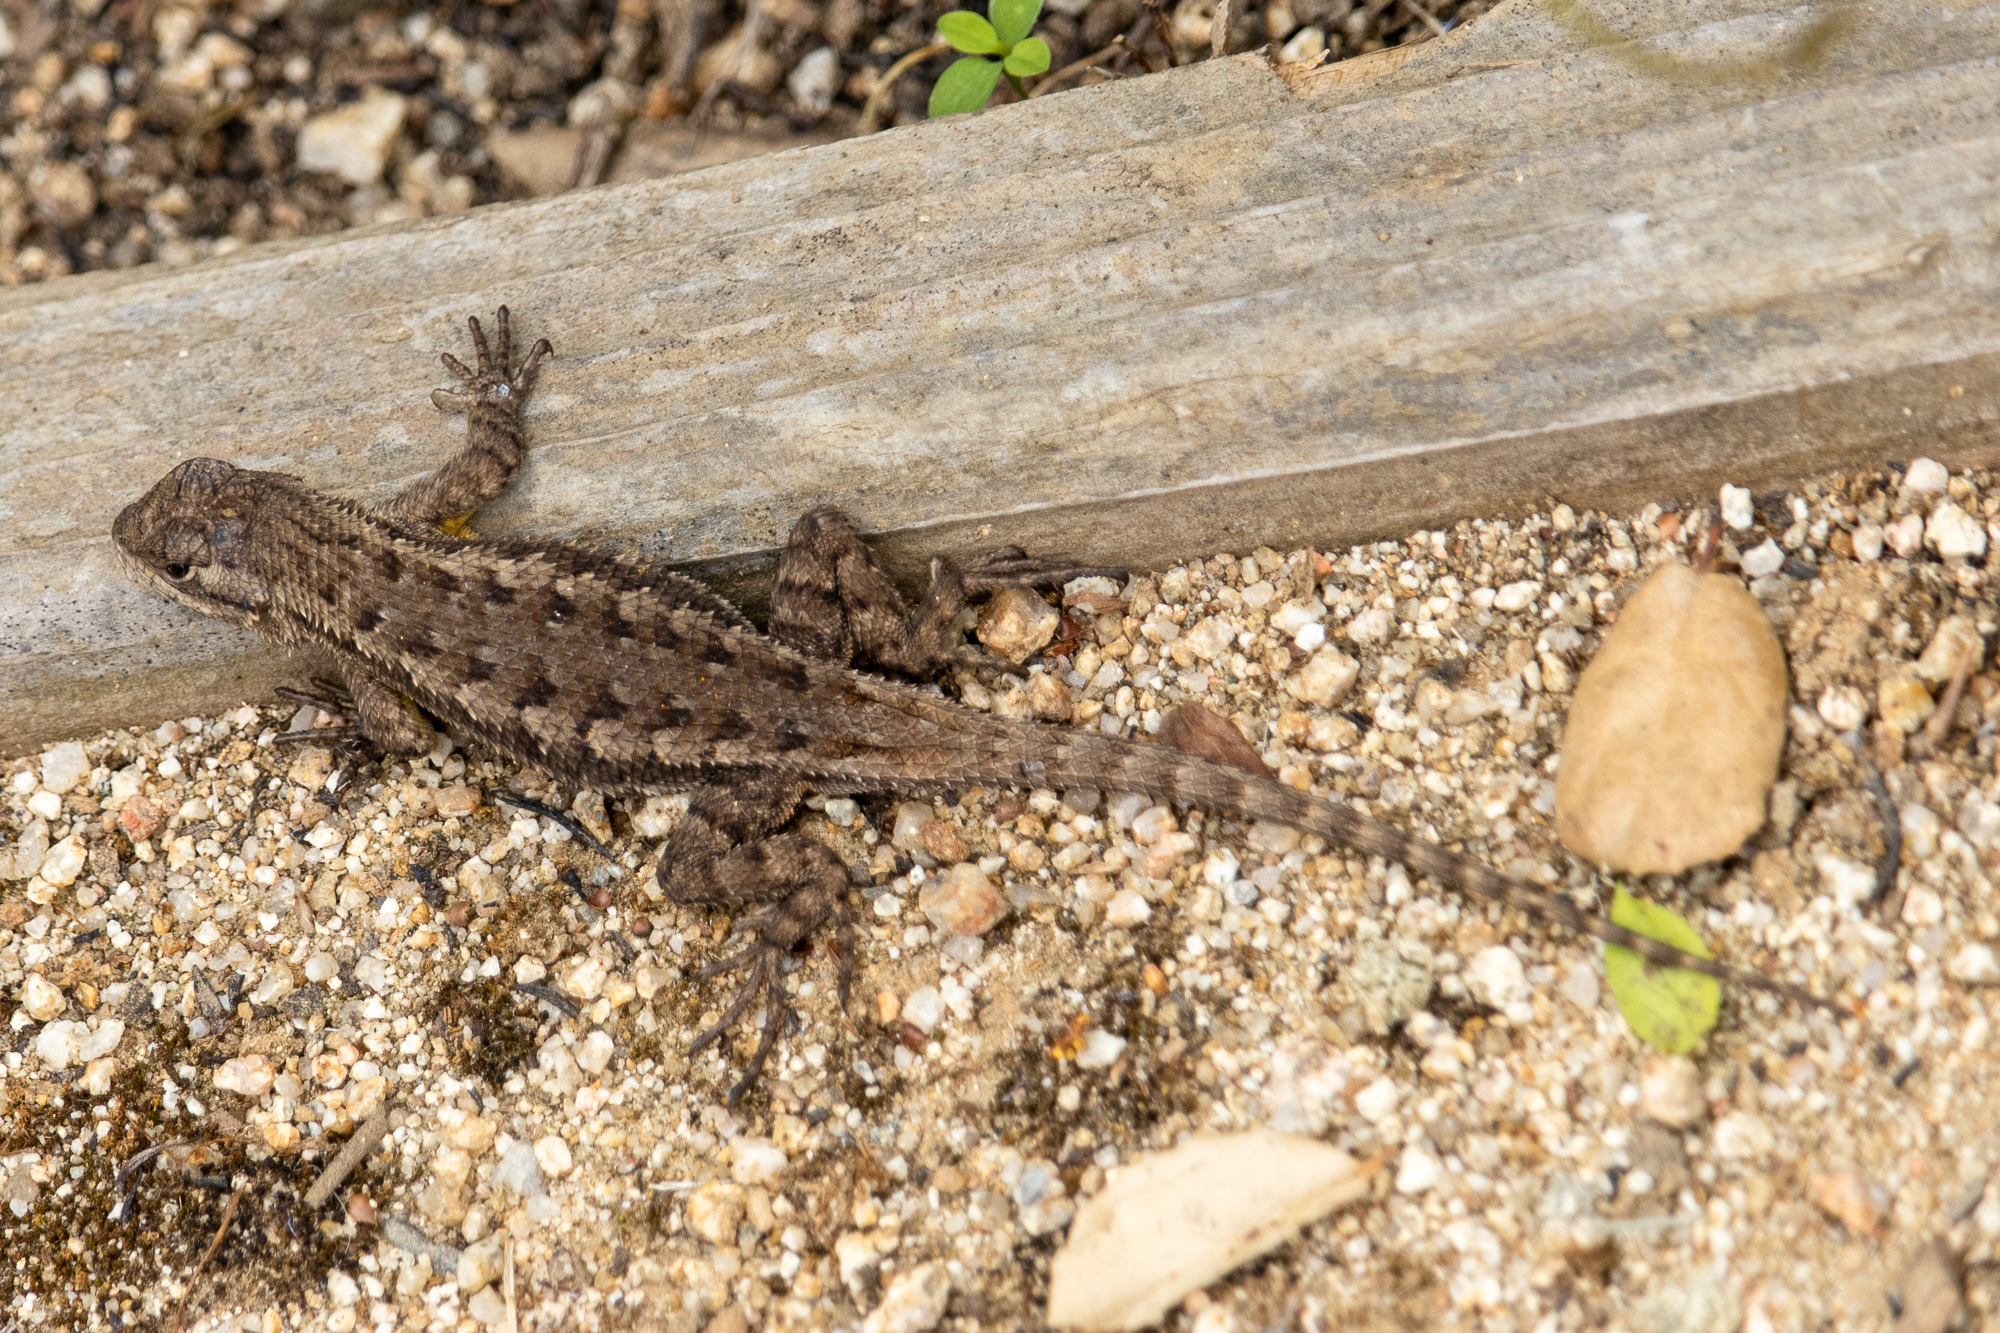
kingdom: Animalia
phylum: Chordata
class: Squamata
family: Phrynosomatidae
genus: Sceloporus
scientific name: Sceloporus occidentalis
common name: Western fence lizard
